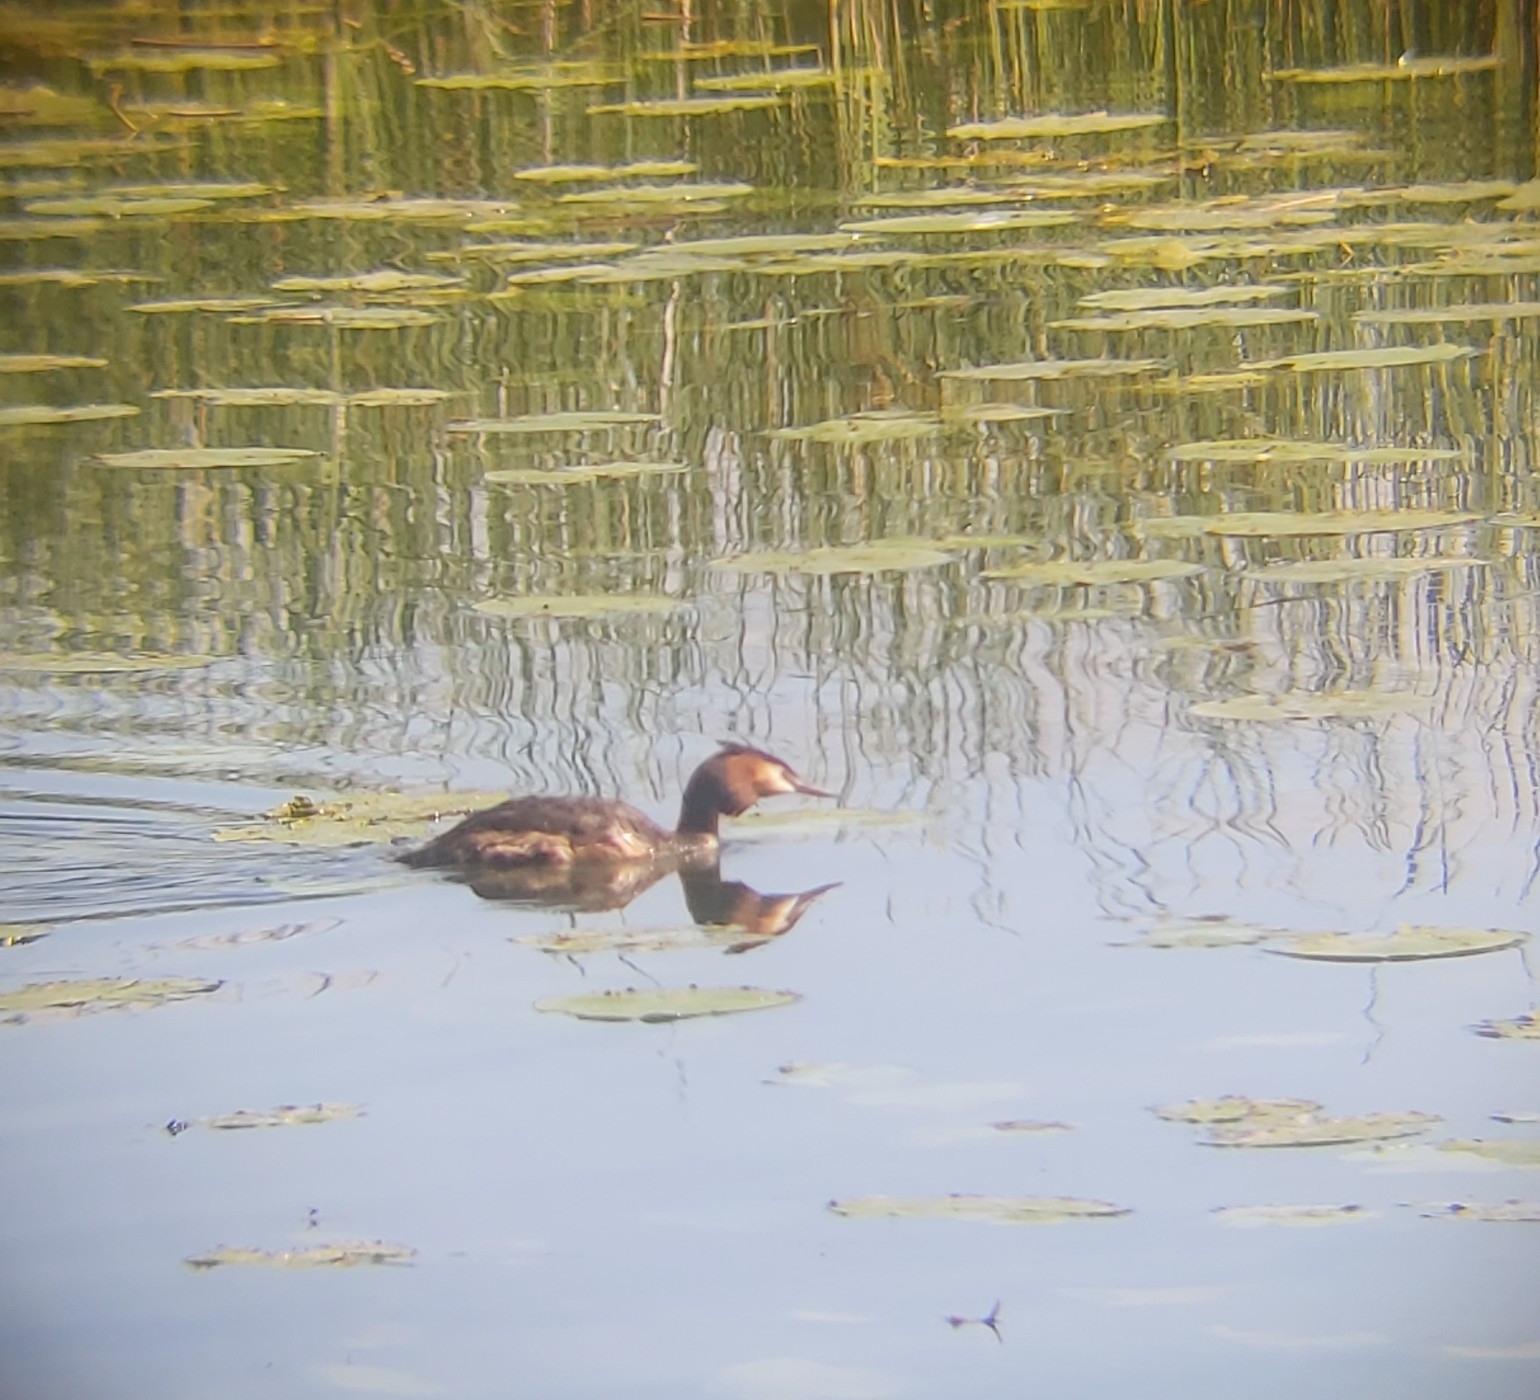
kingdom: Animalia
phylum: Chordata
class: Aves
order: Podicipediformes
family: Podicipedidae
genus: Podiceps
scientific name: Podiceps cristatus
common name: Great crested grebe
